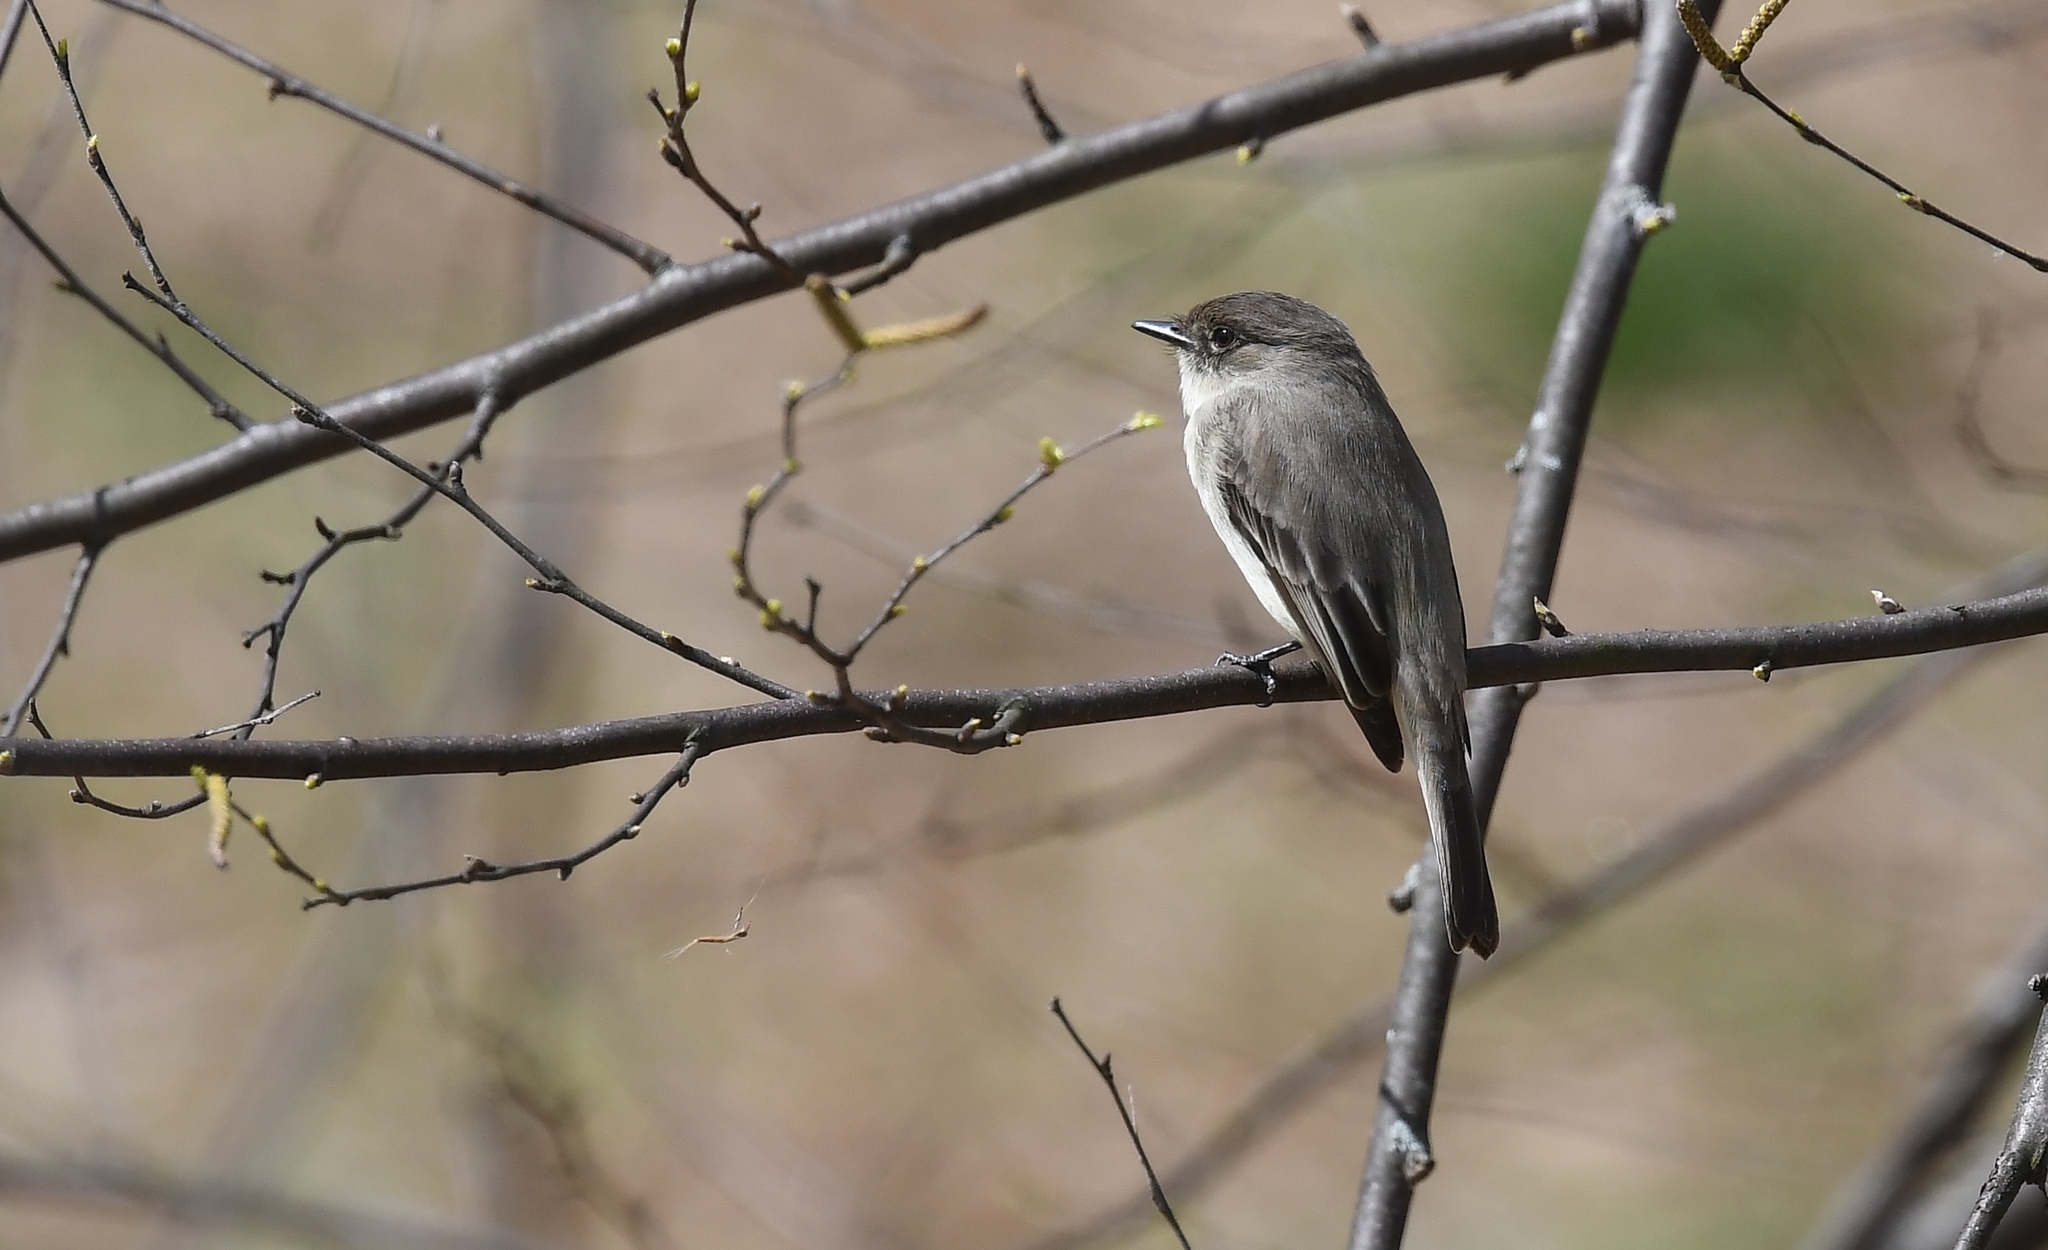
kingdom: Animalia
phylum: Chordata
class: Aves
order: Passeriformes
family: Tyrannidae
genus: Sayornis
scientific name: Sayornis phoebe
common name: Eastern phoebe
